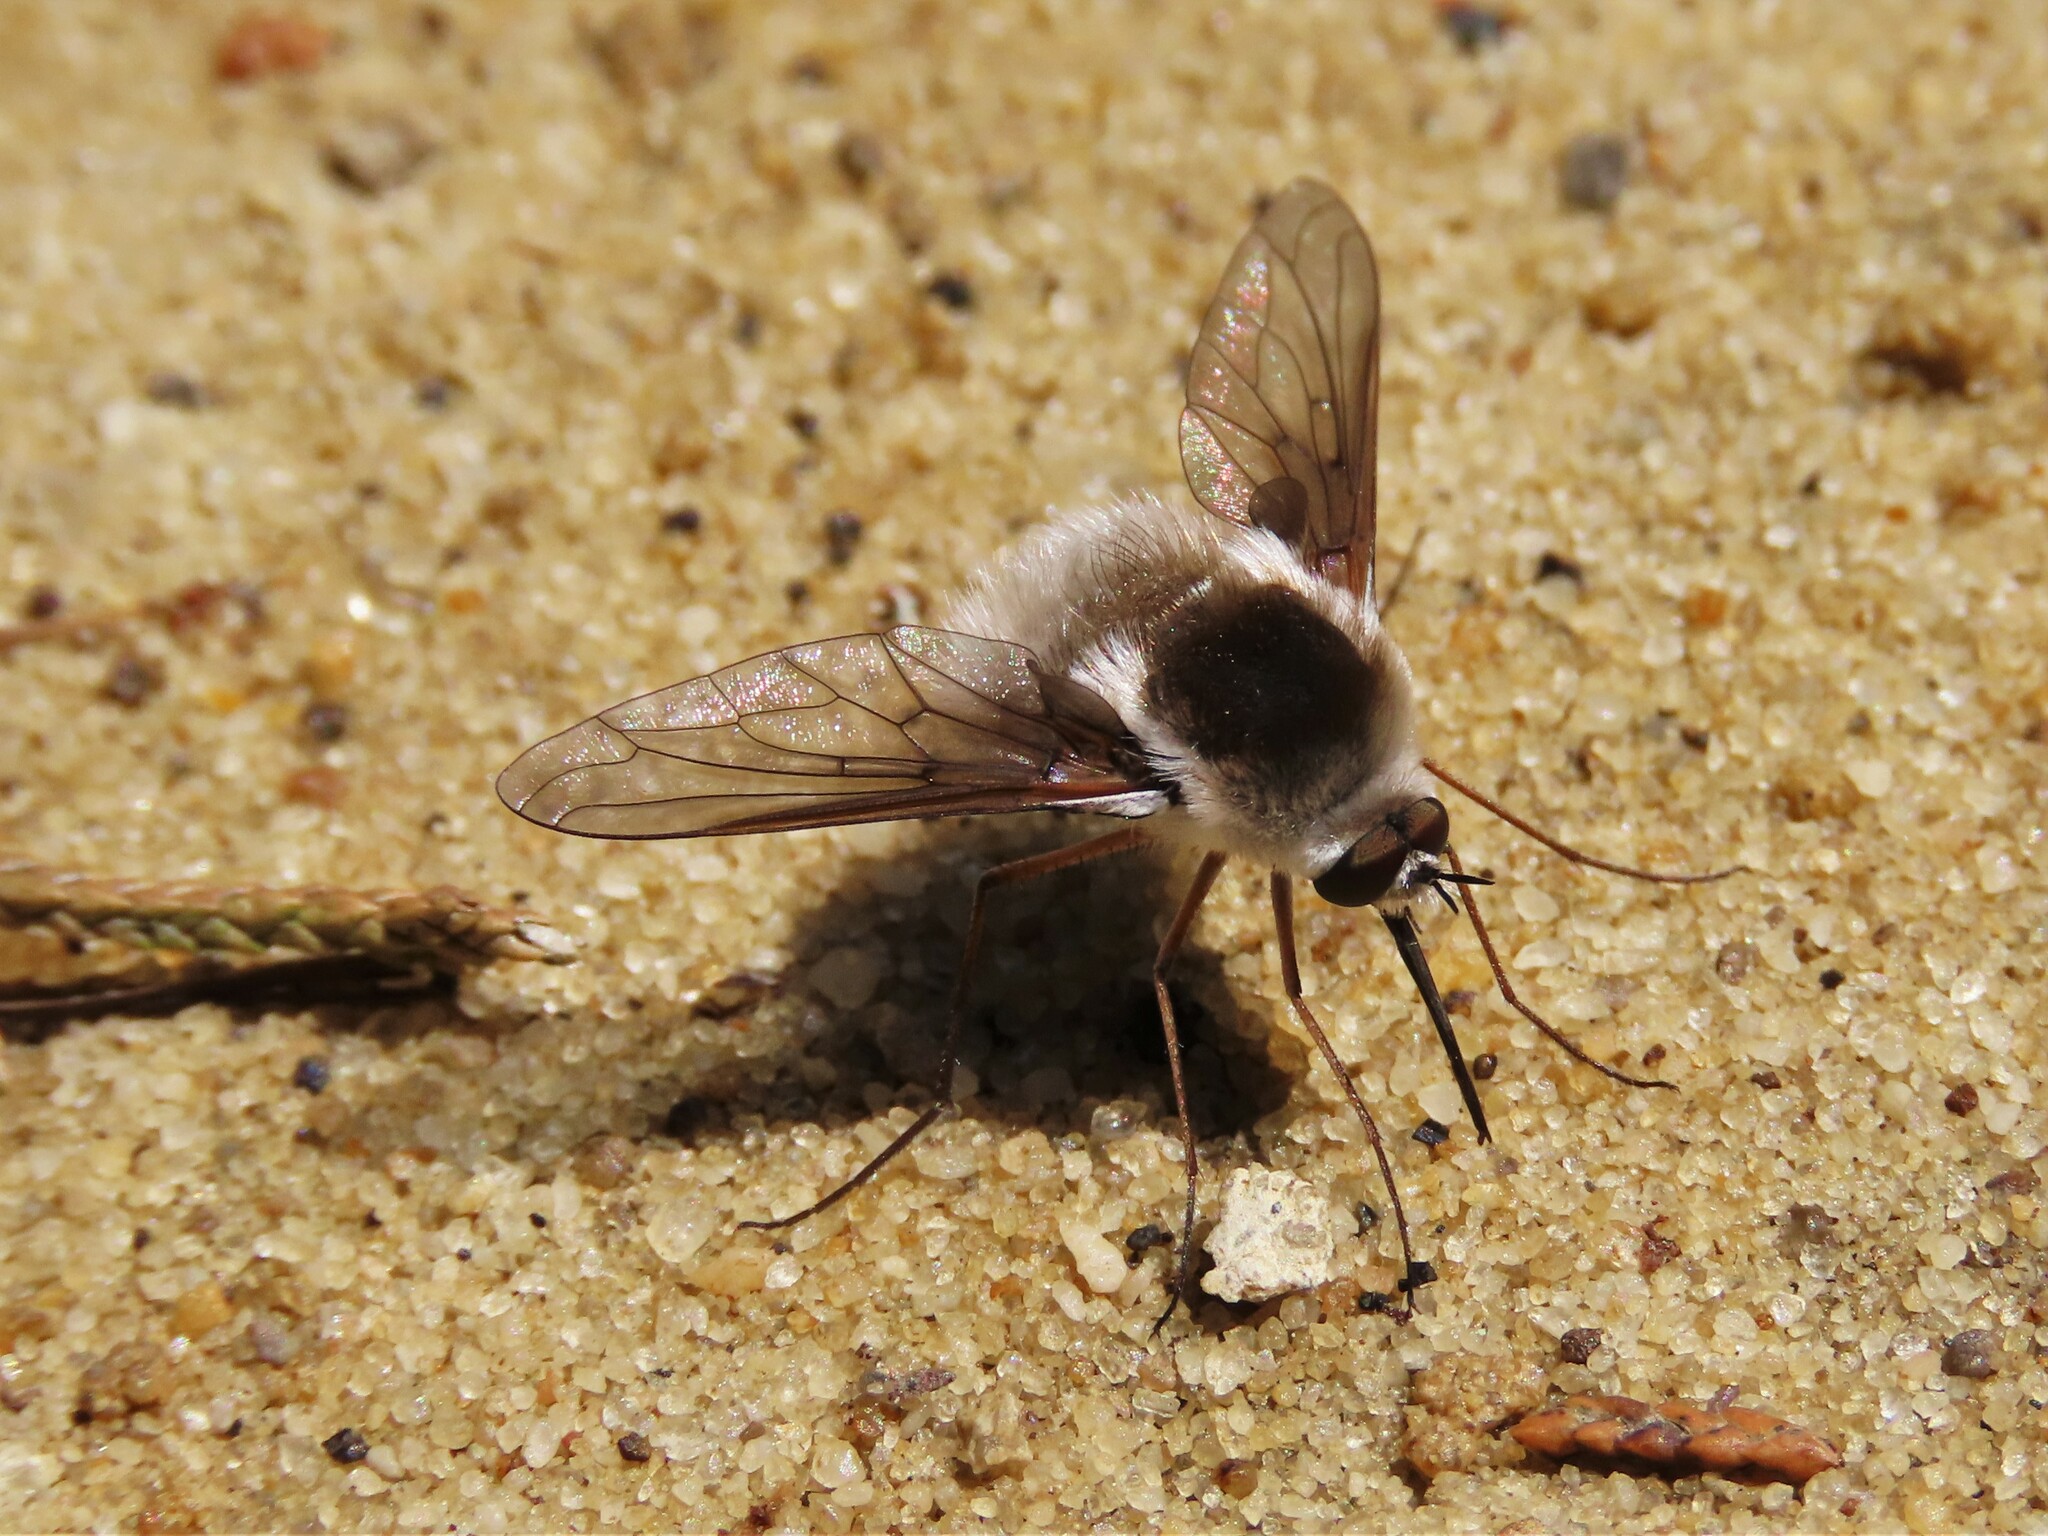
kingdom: Animalia
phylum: Arthropoda
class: Insecta
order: Diptera
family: Bombyliidae
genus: Bombylius
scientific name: Bombylius incanus
